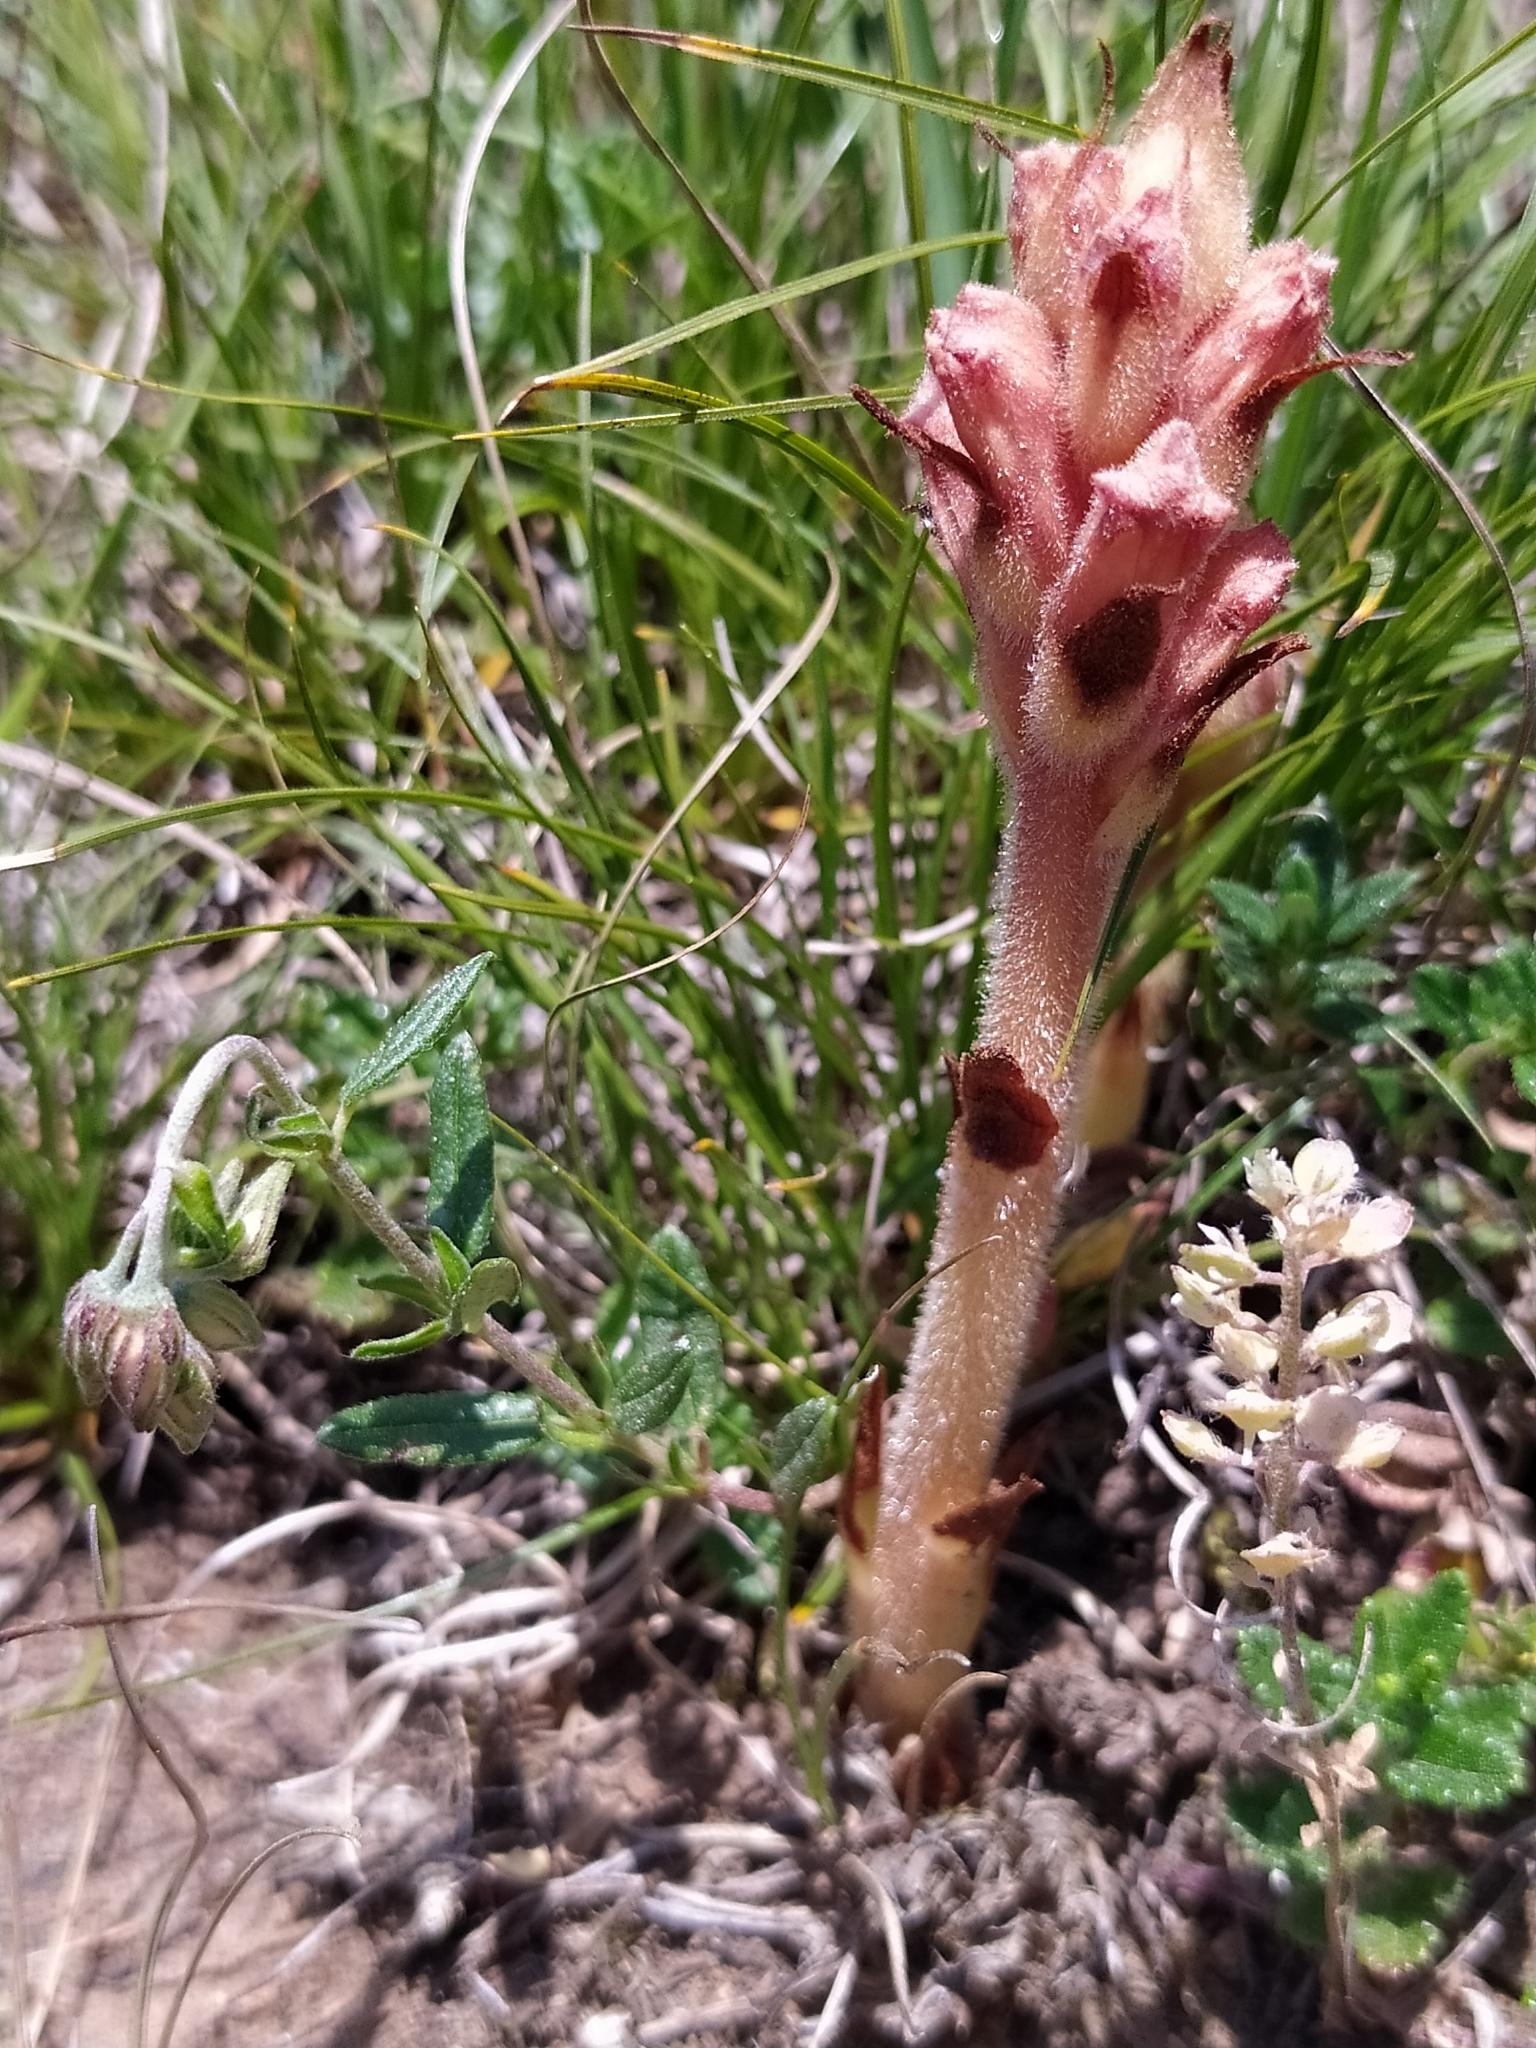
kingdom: Plantae
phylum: Tracheophyta
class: Magnoliopsida
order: Lamiales
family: Orobanchaceae
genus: Orobanche
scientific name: Orobanche teucrii
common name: Germander broomrape
